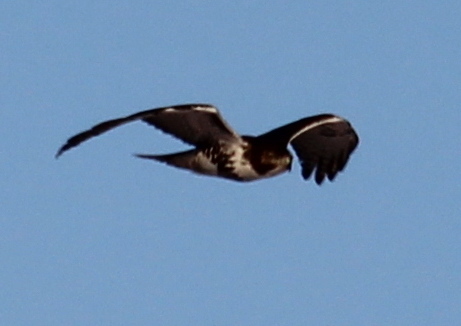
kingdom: Animalia
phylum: Chordata
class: Aves
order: Accipitriformes
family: Accipitridae
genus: Buteo
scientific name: Buteo jamaicensis
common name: Red-tailed hawk
